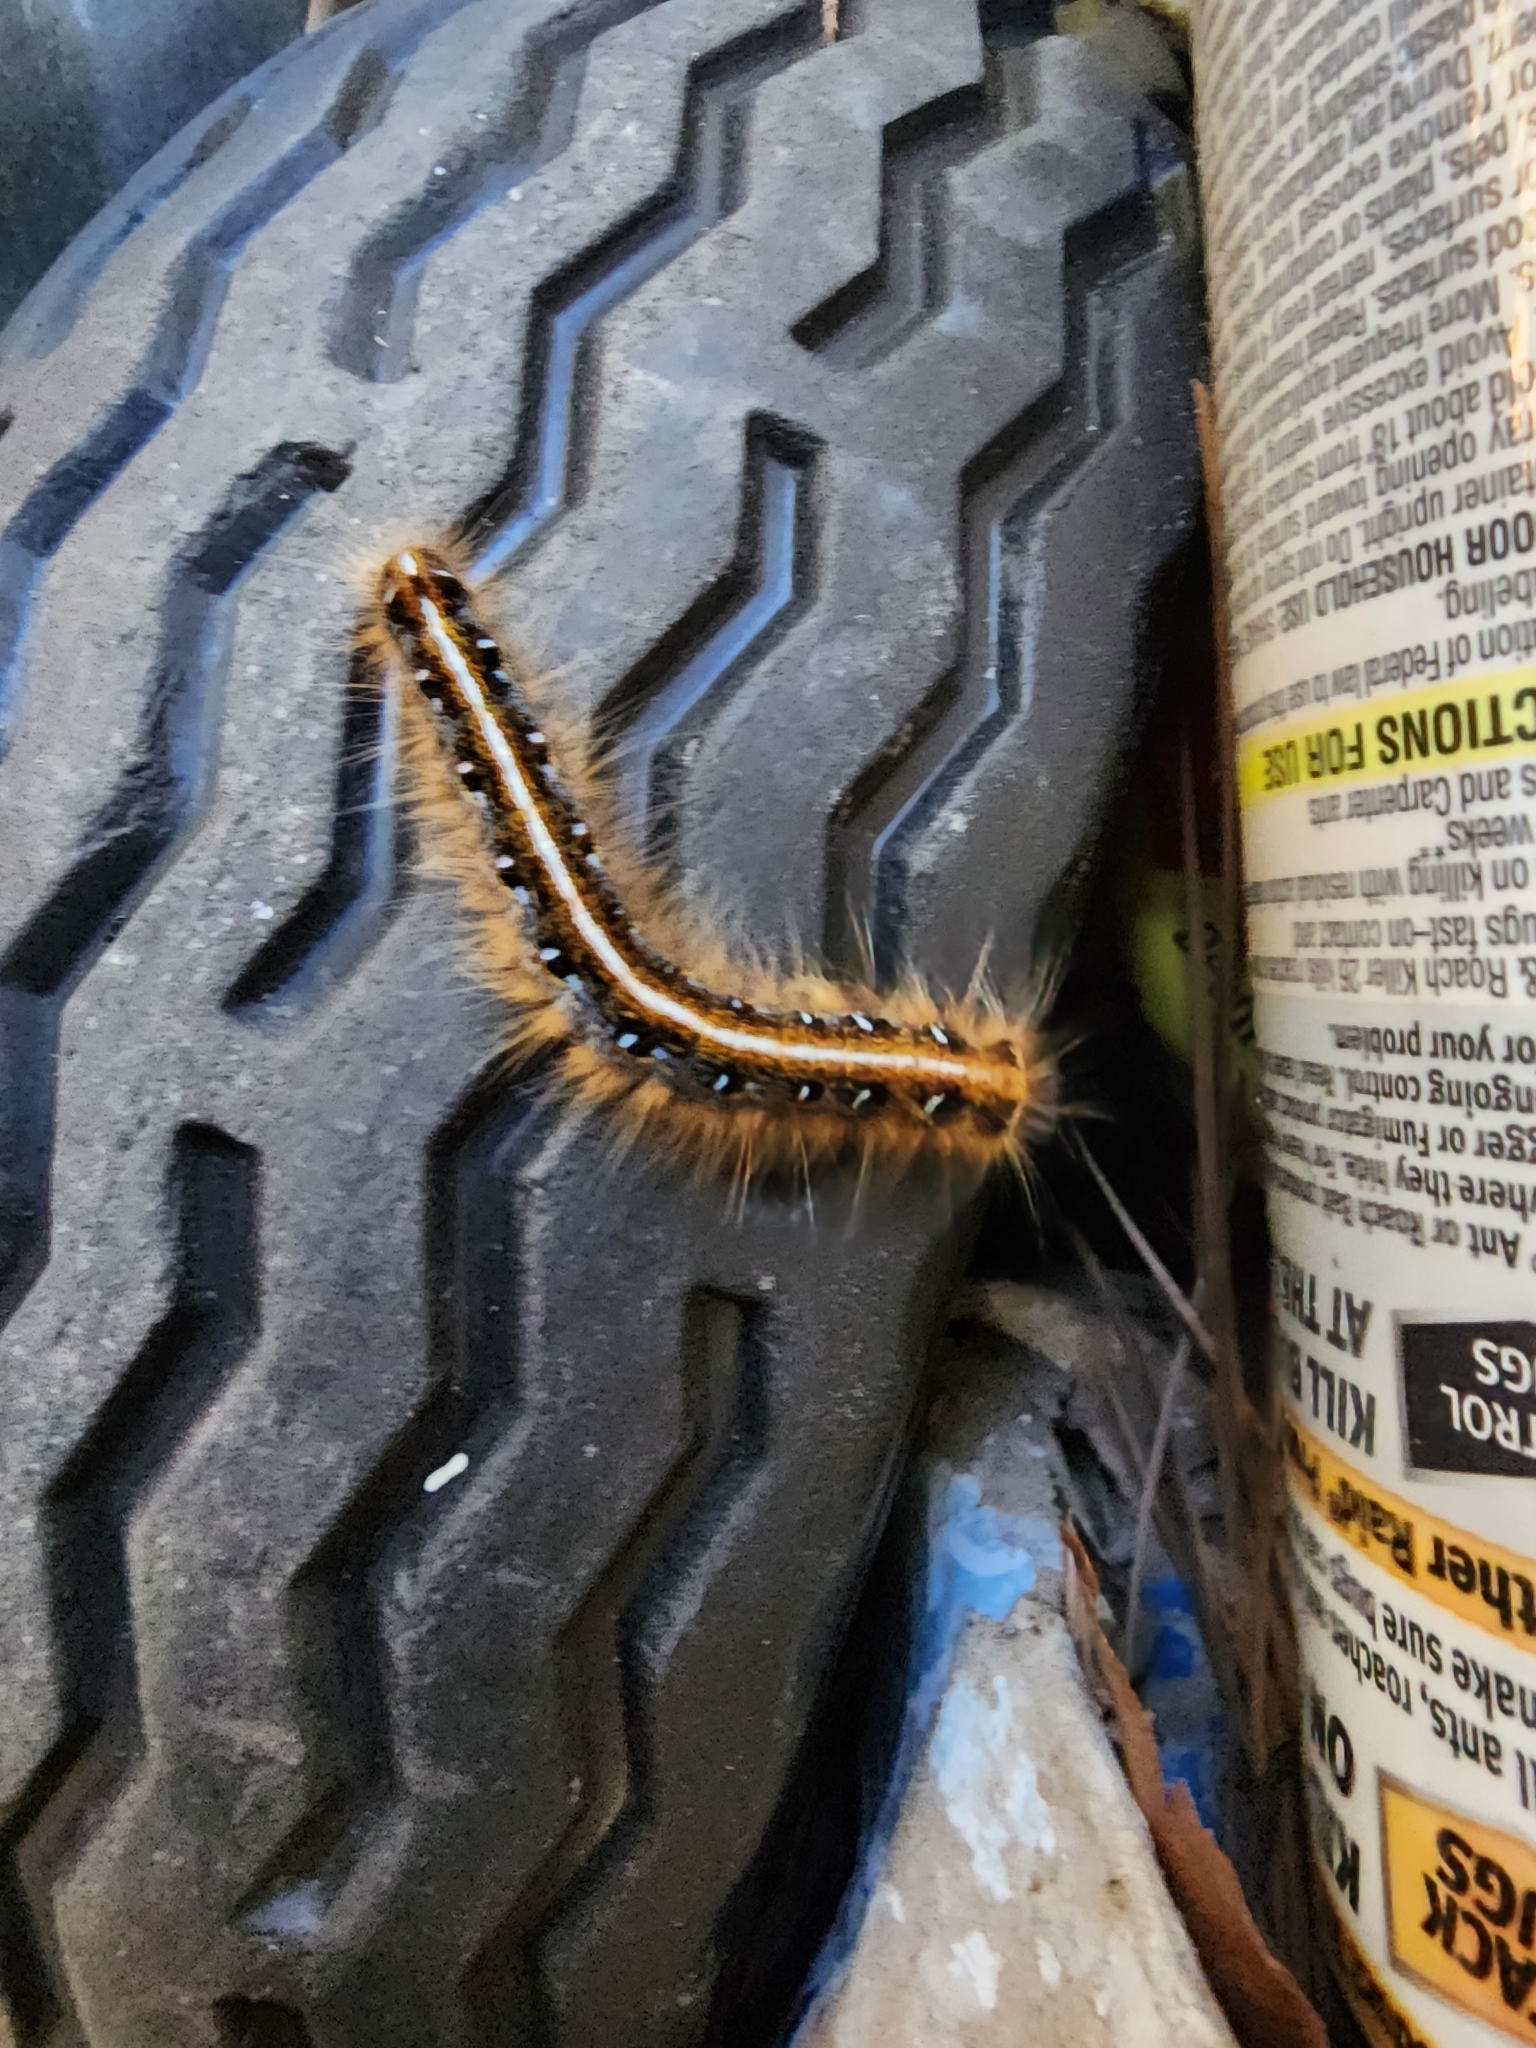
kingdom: Animalia
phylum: Arthropoda
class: Insecta
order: Lepidoptera
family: Lasiocampidae
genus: Malacosoma
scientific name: Malacosoma americana
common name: Eastern tent caterpillar moth
